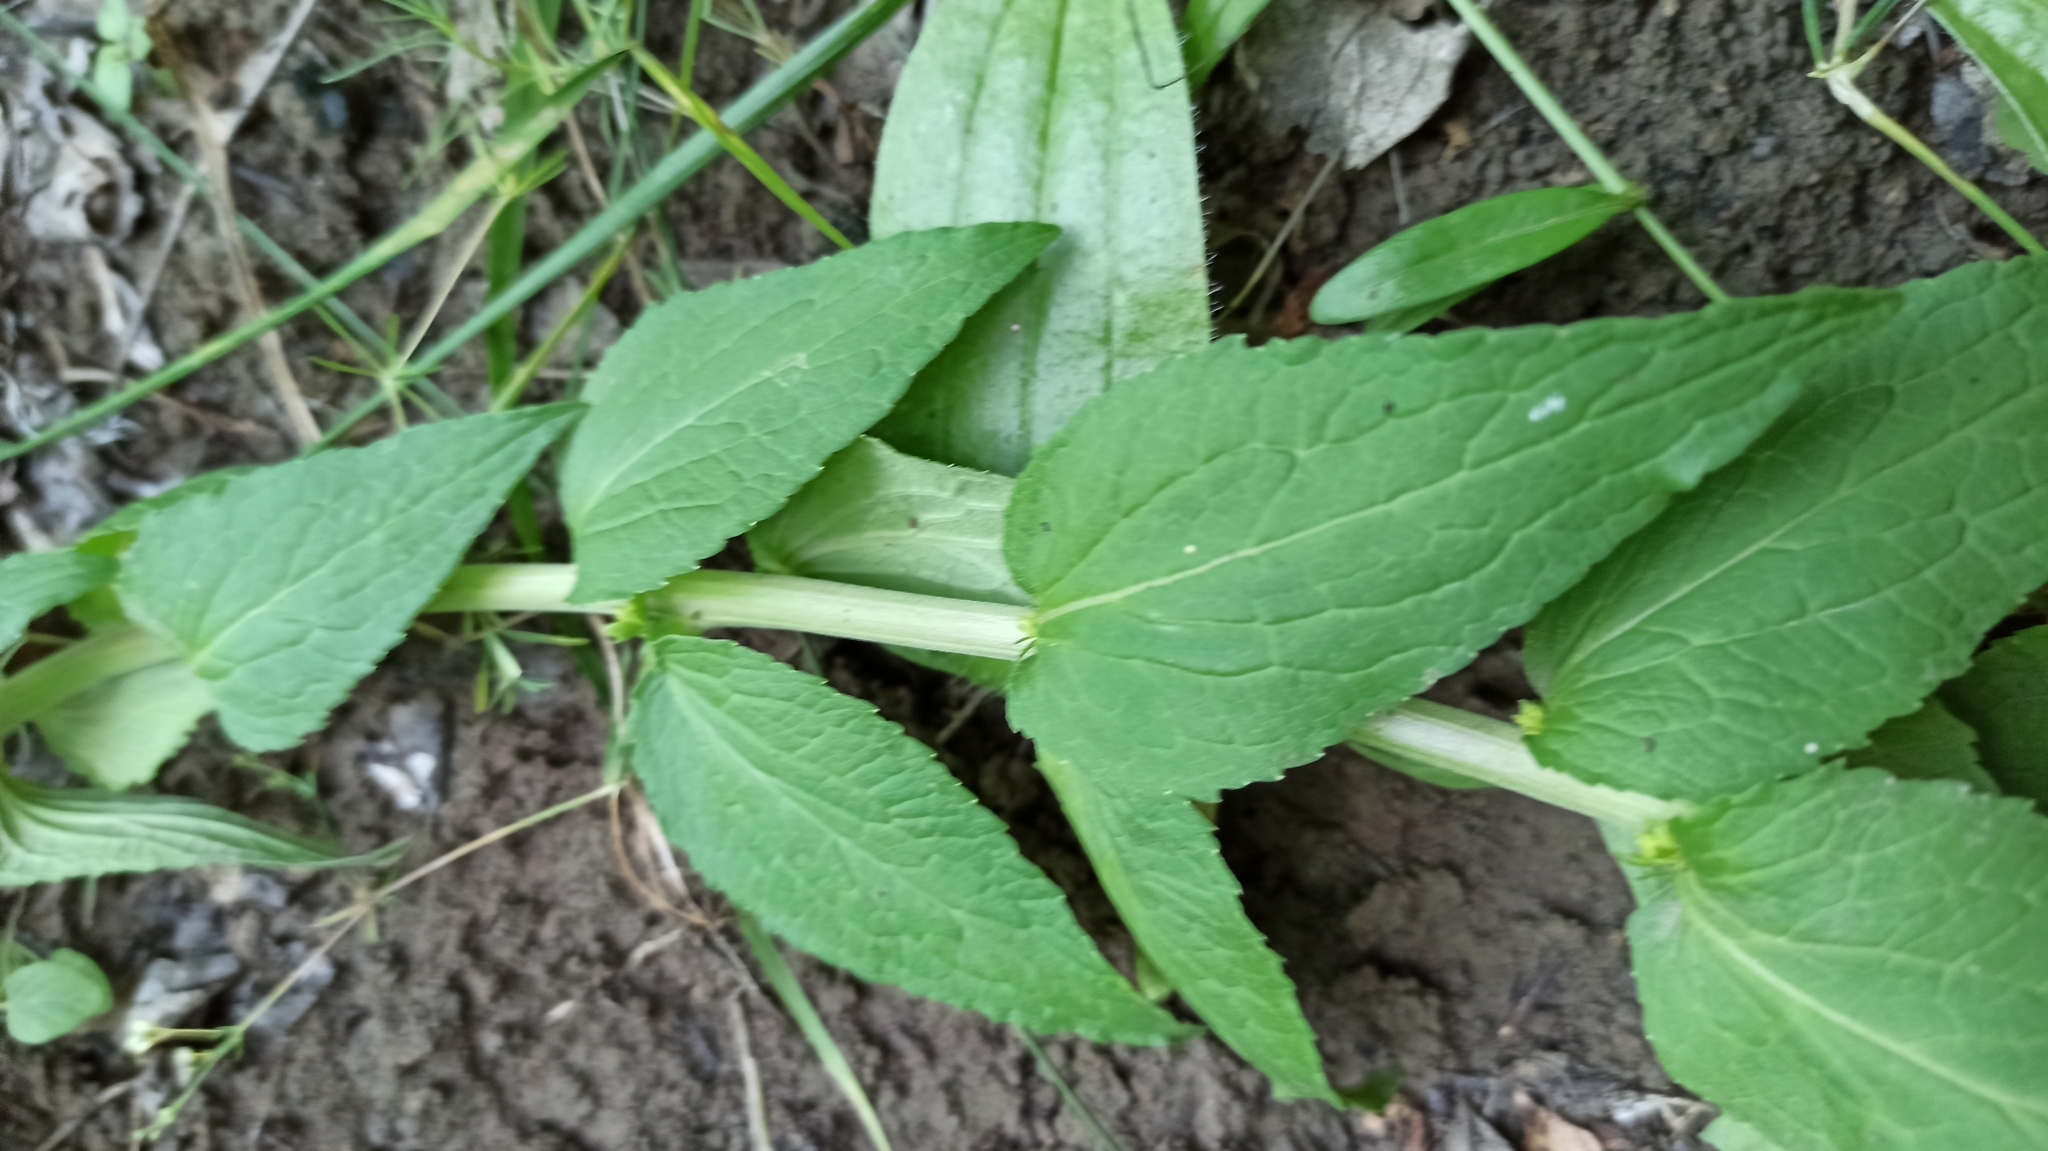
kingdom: Plantae
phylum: Tracheophyta
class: Magnoliopsida
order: Asterales
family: Campanulaceae
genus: Campanula
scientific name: Campanula bononiensis
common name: Pale bellflower
